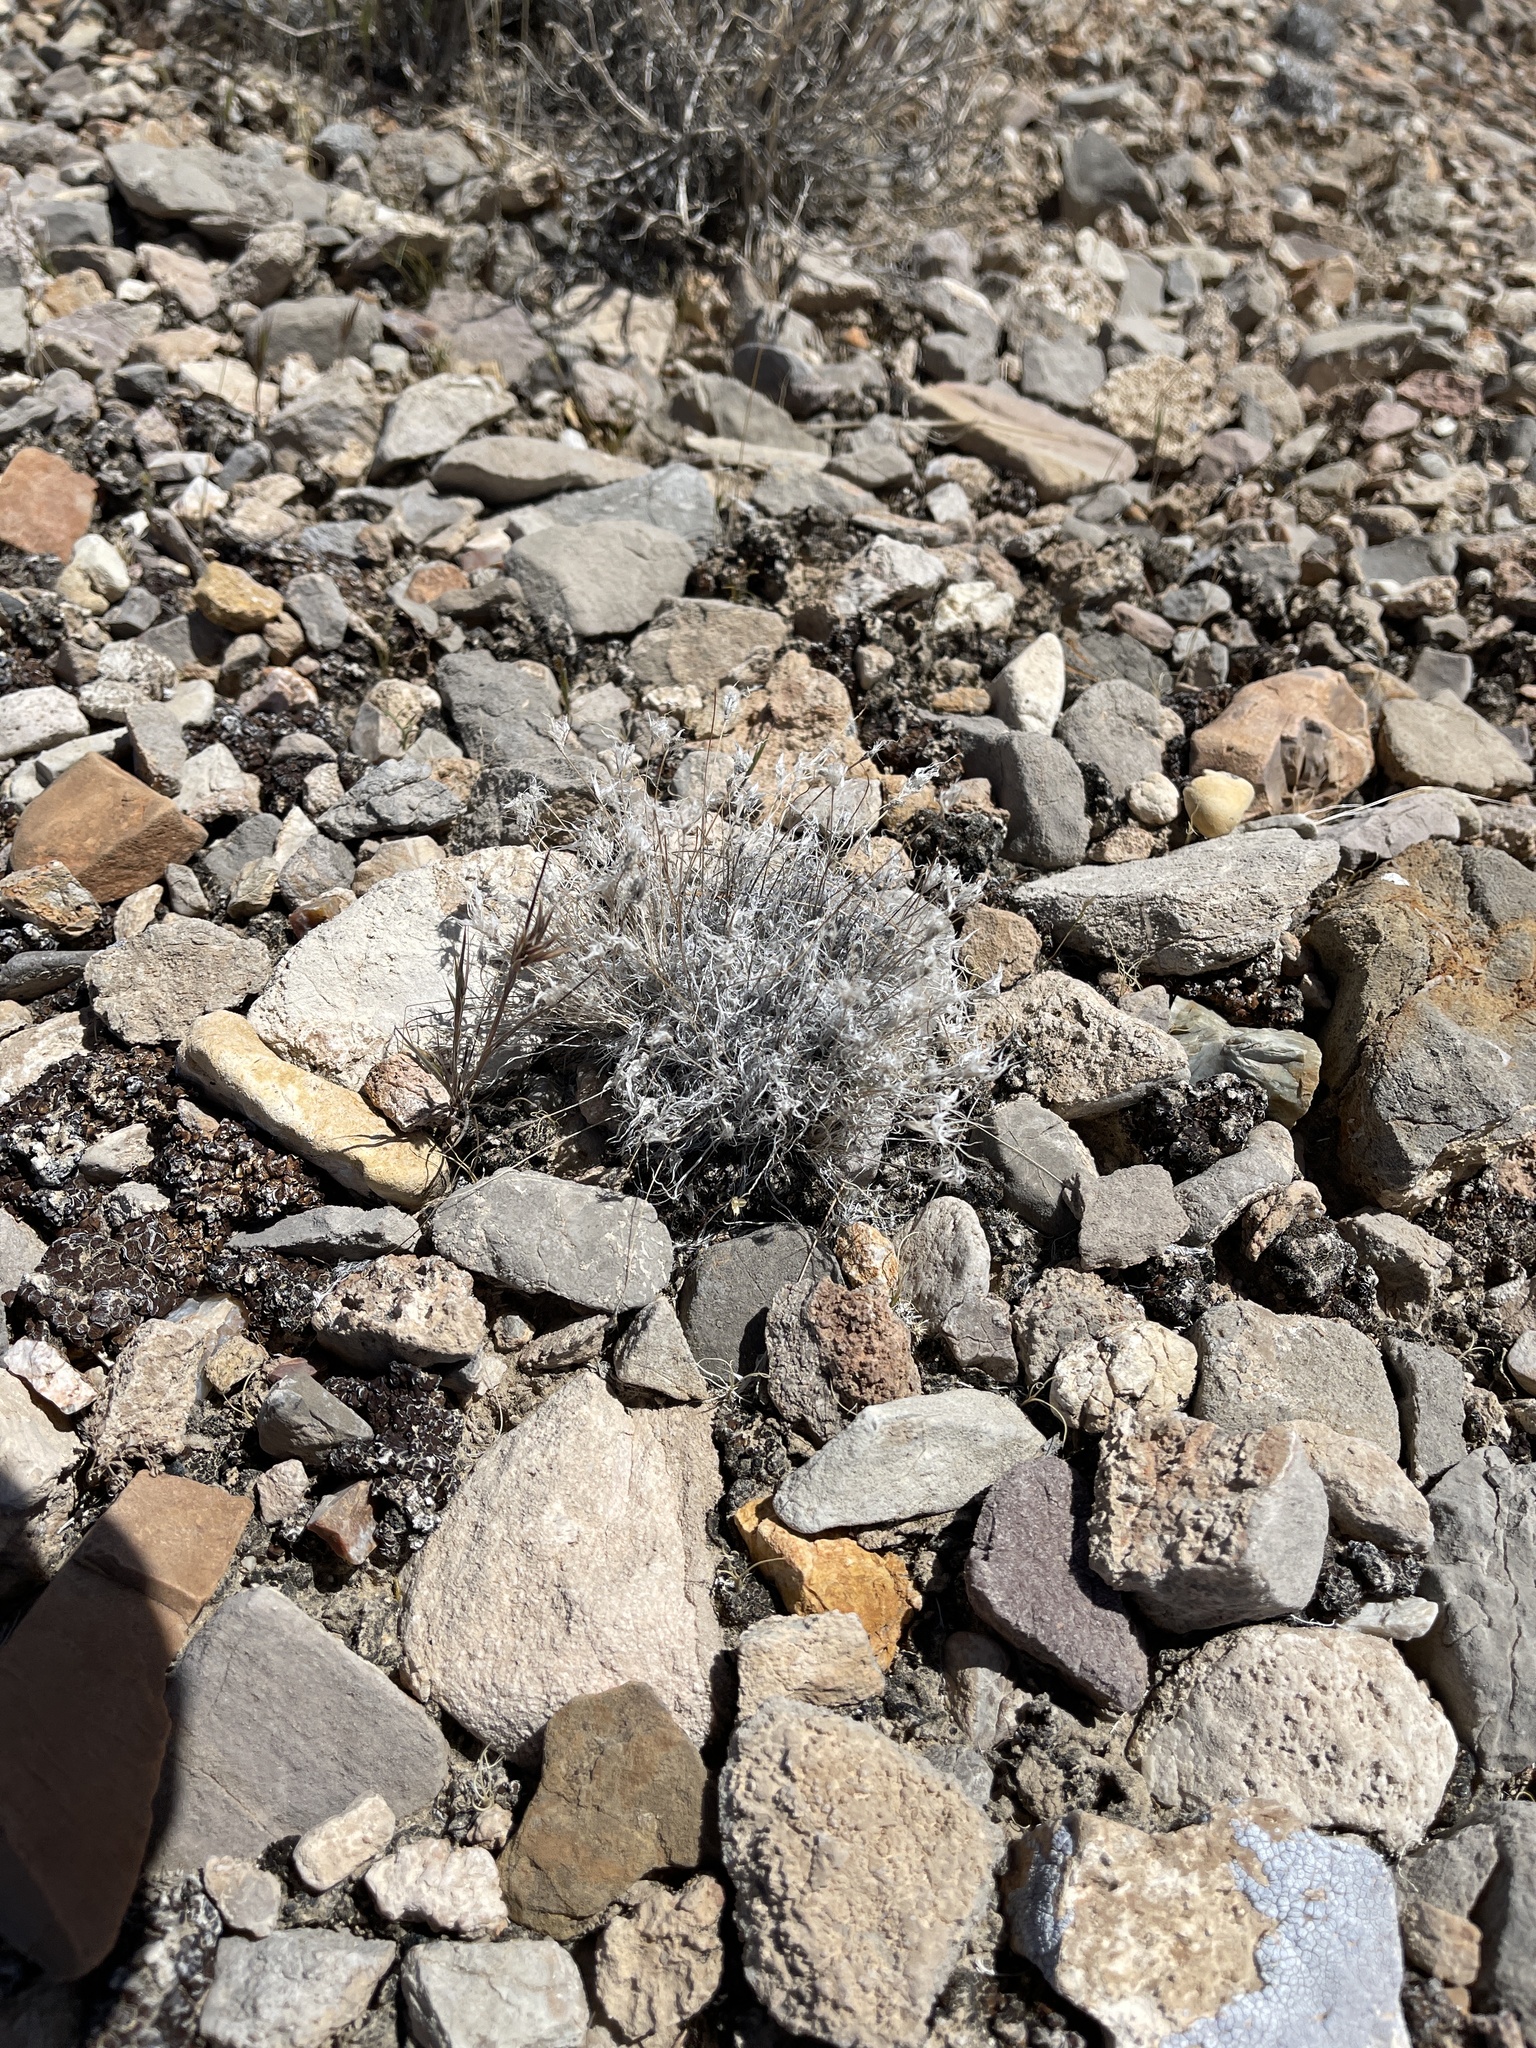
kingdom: Plantae
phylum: Tracheophyta
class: Liliopsida
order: Poales
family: Poaceae
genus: Dasyochloa
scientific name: Dasyochloa pulchella
